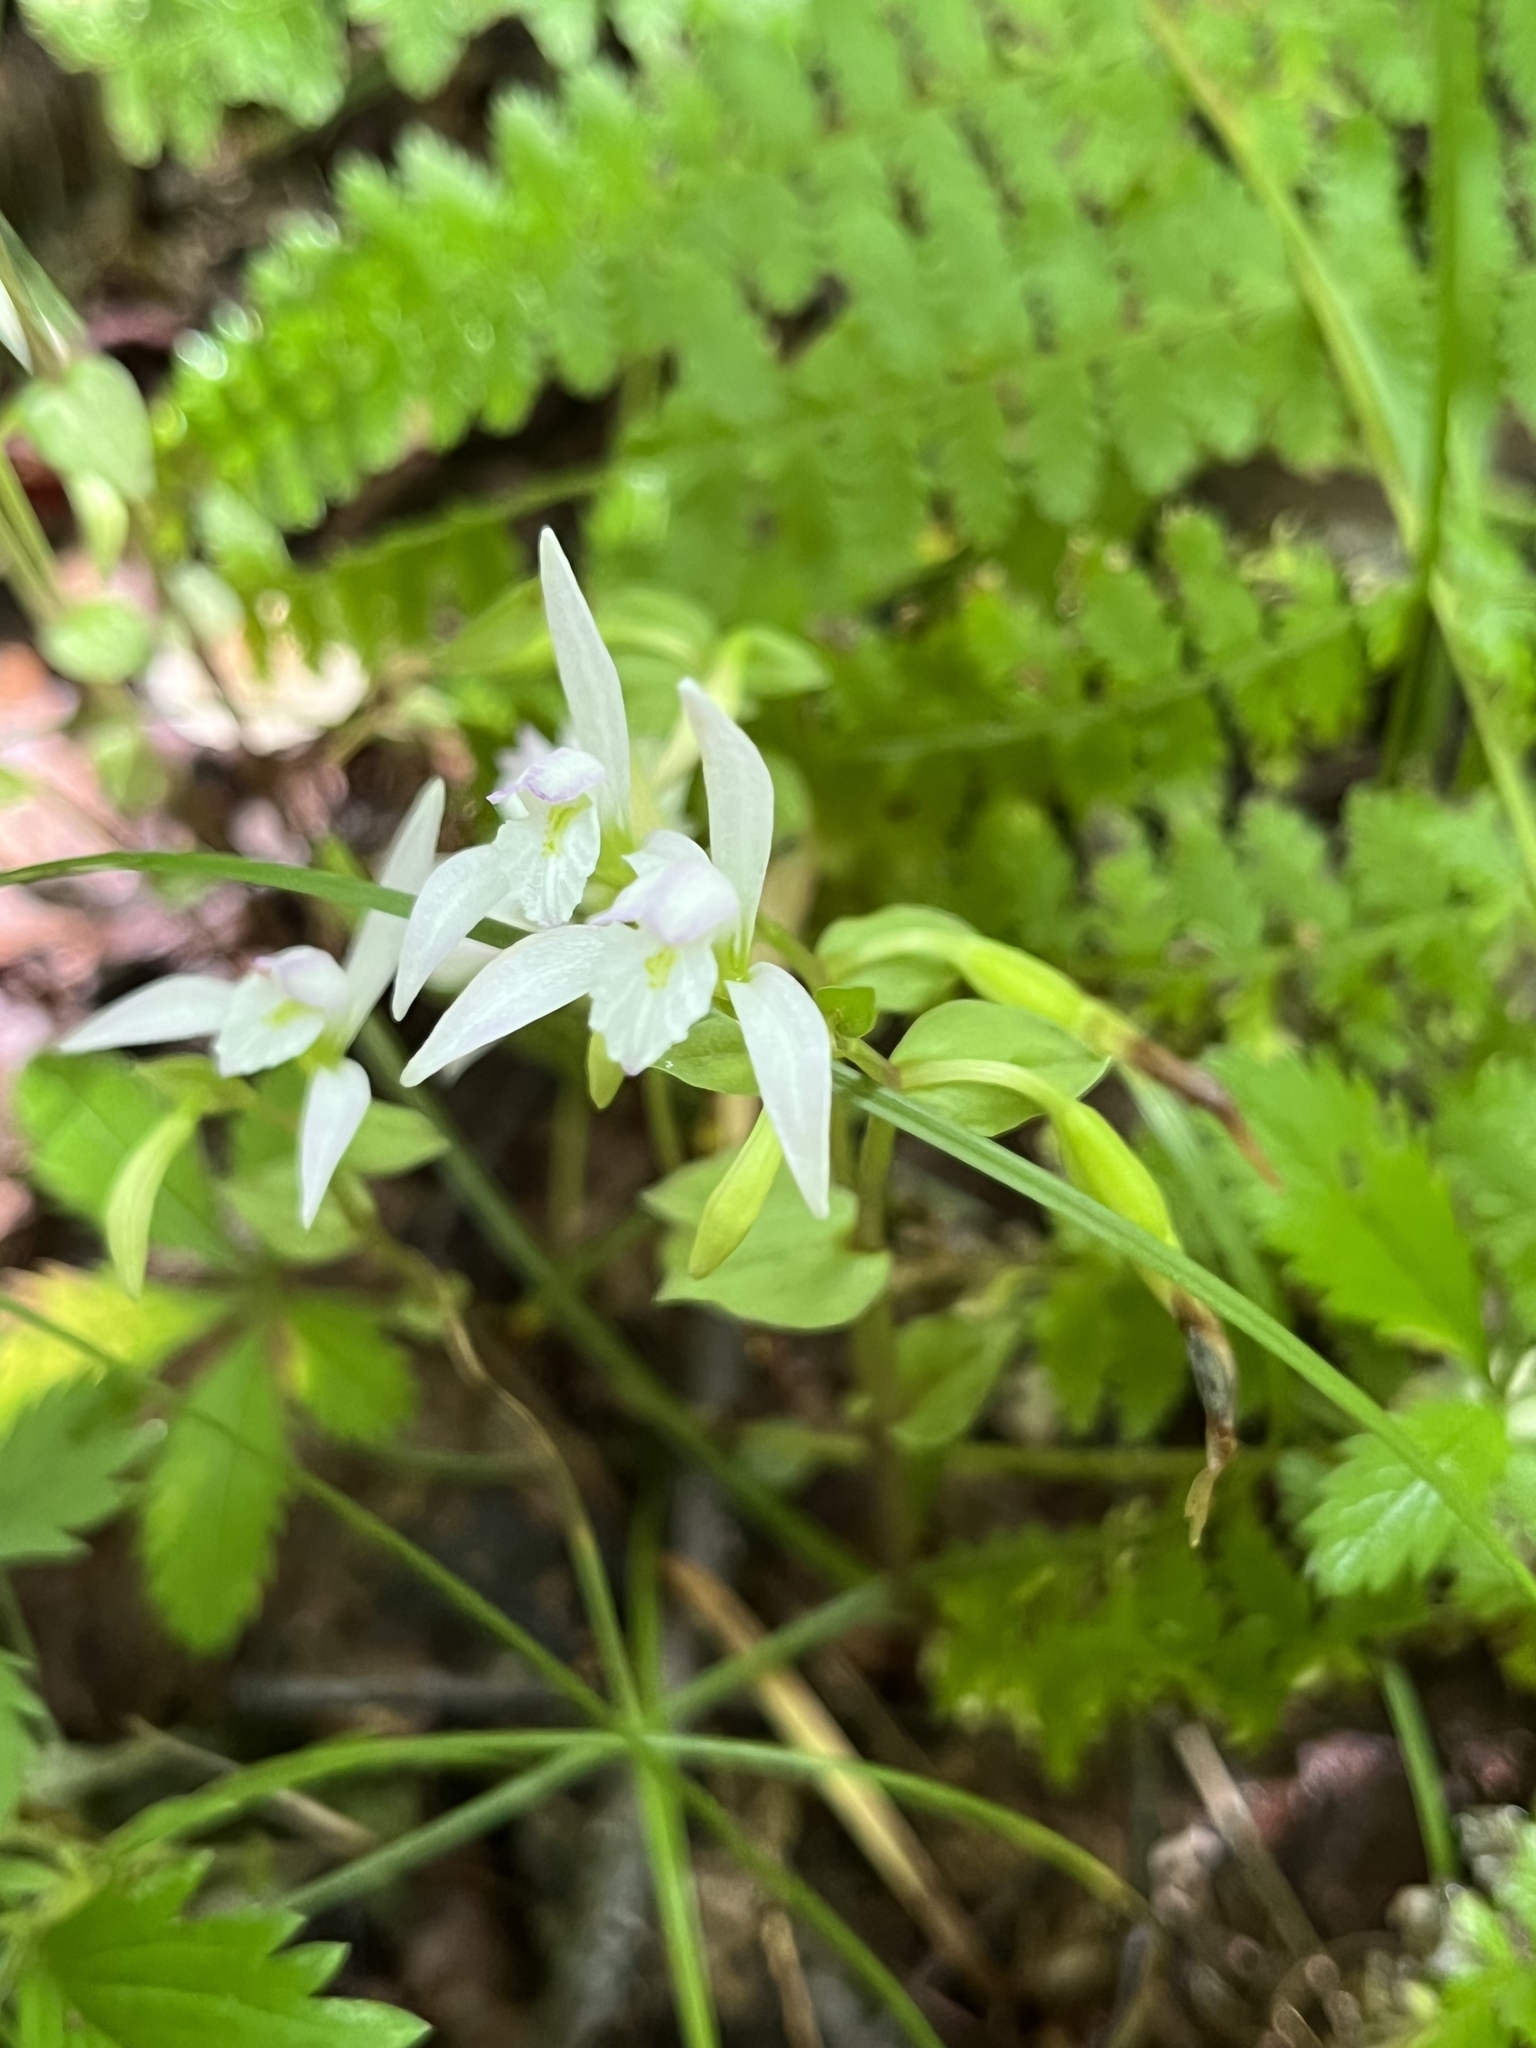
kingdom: Plantae
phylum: Tracheophyta
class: Liliopsida
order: Asparagales
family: Orchidaceae
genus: Triphora
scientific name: Triphora trianthophoros
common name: Three birds orchid
